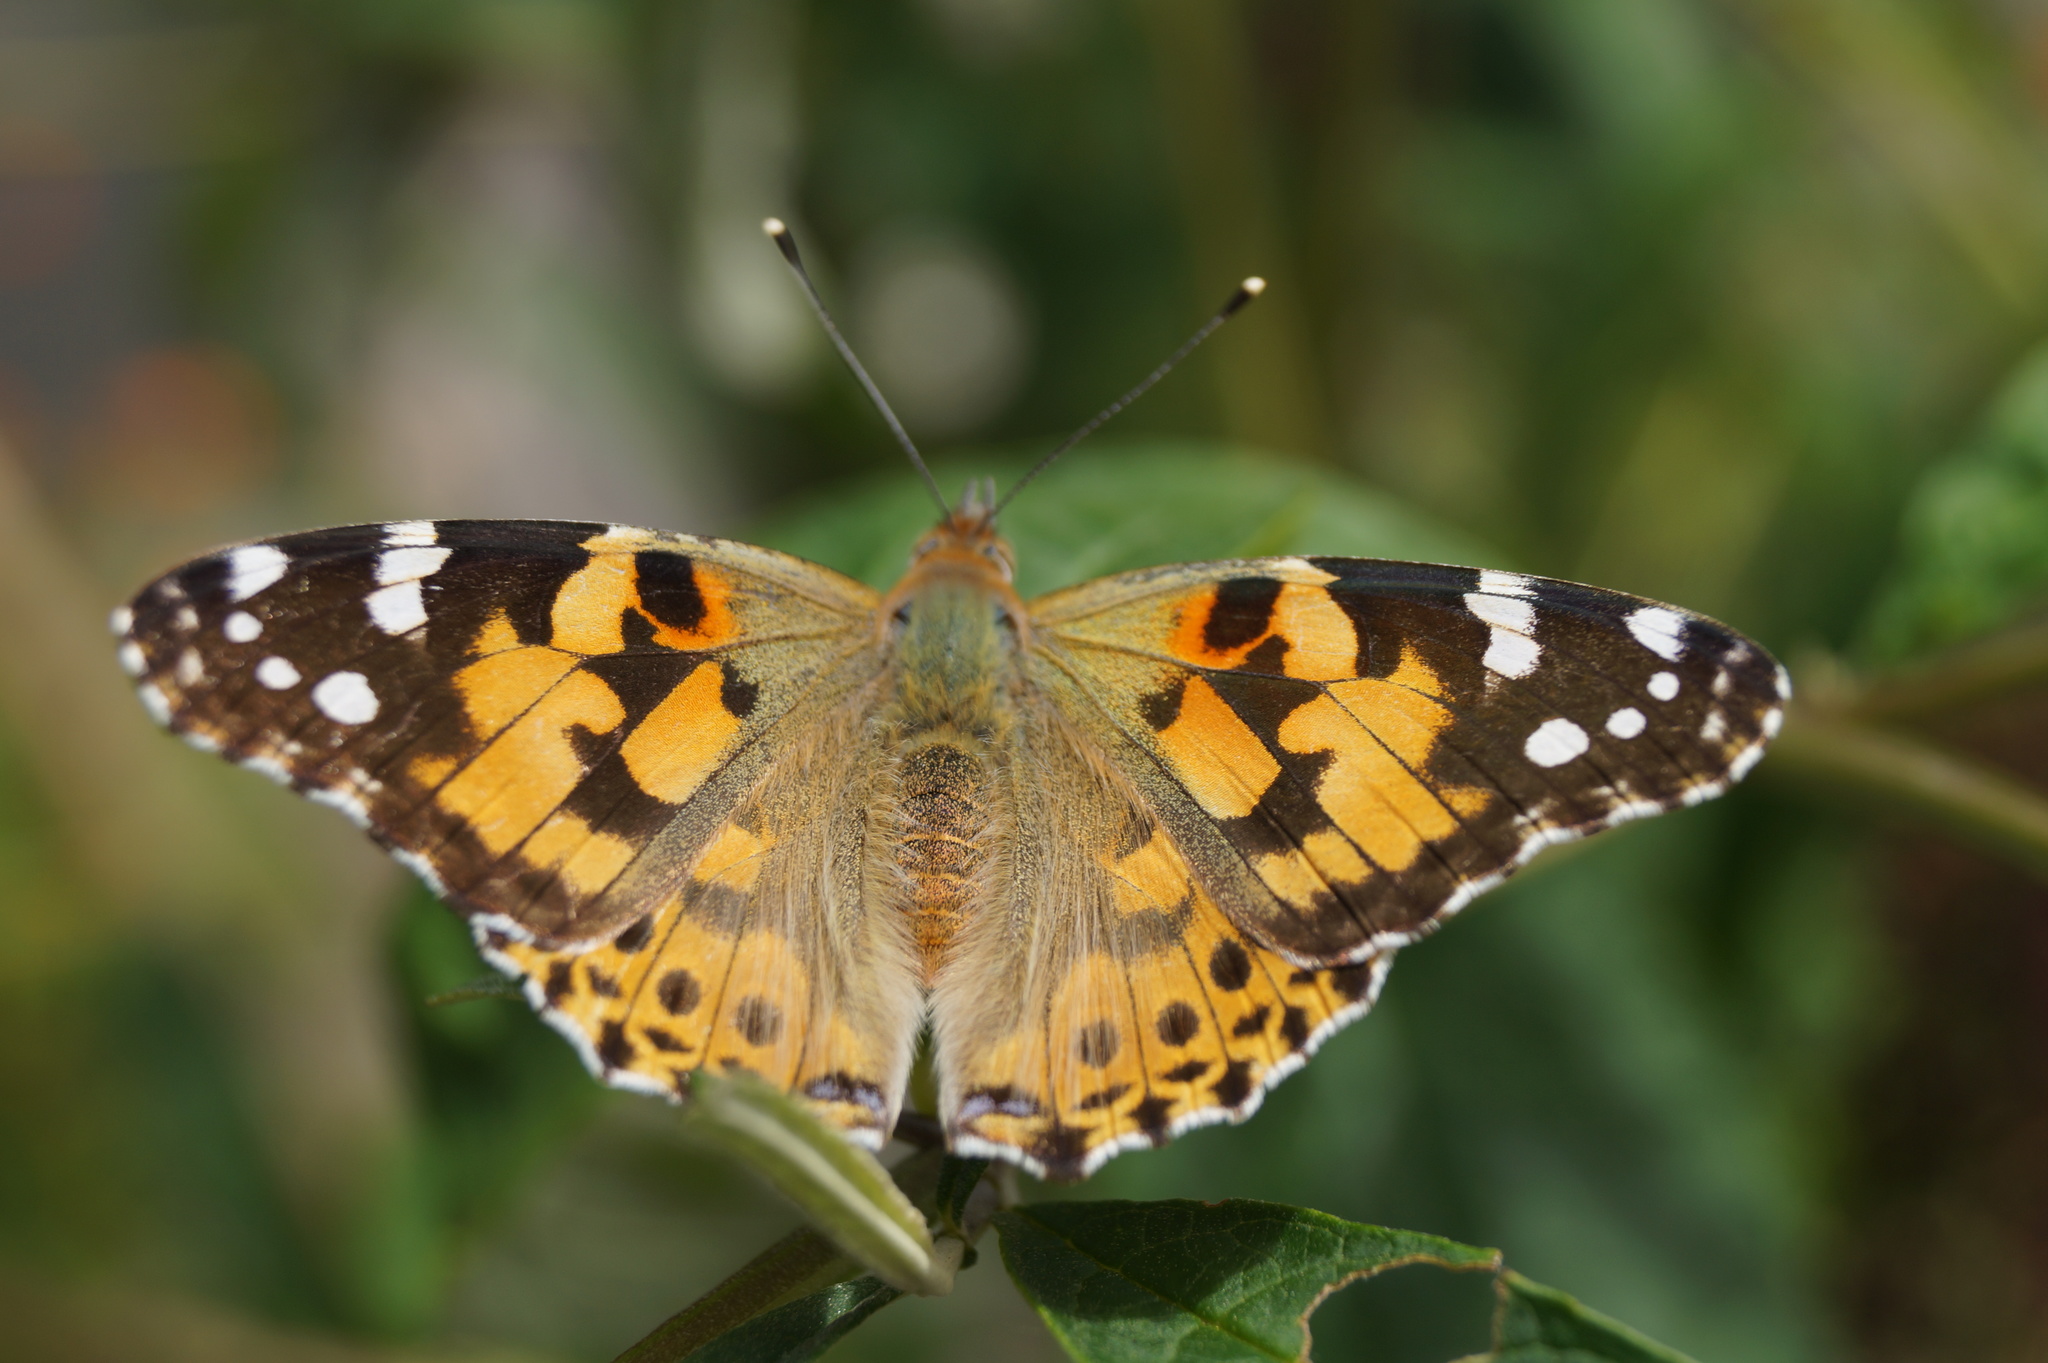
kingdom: Animalia
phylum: Arthropoda
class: Insecta
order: Lepidoptera
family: Nymphalidae
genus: Vanessa
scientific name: Vanessa cardui
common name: Painted lady
